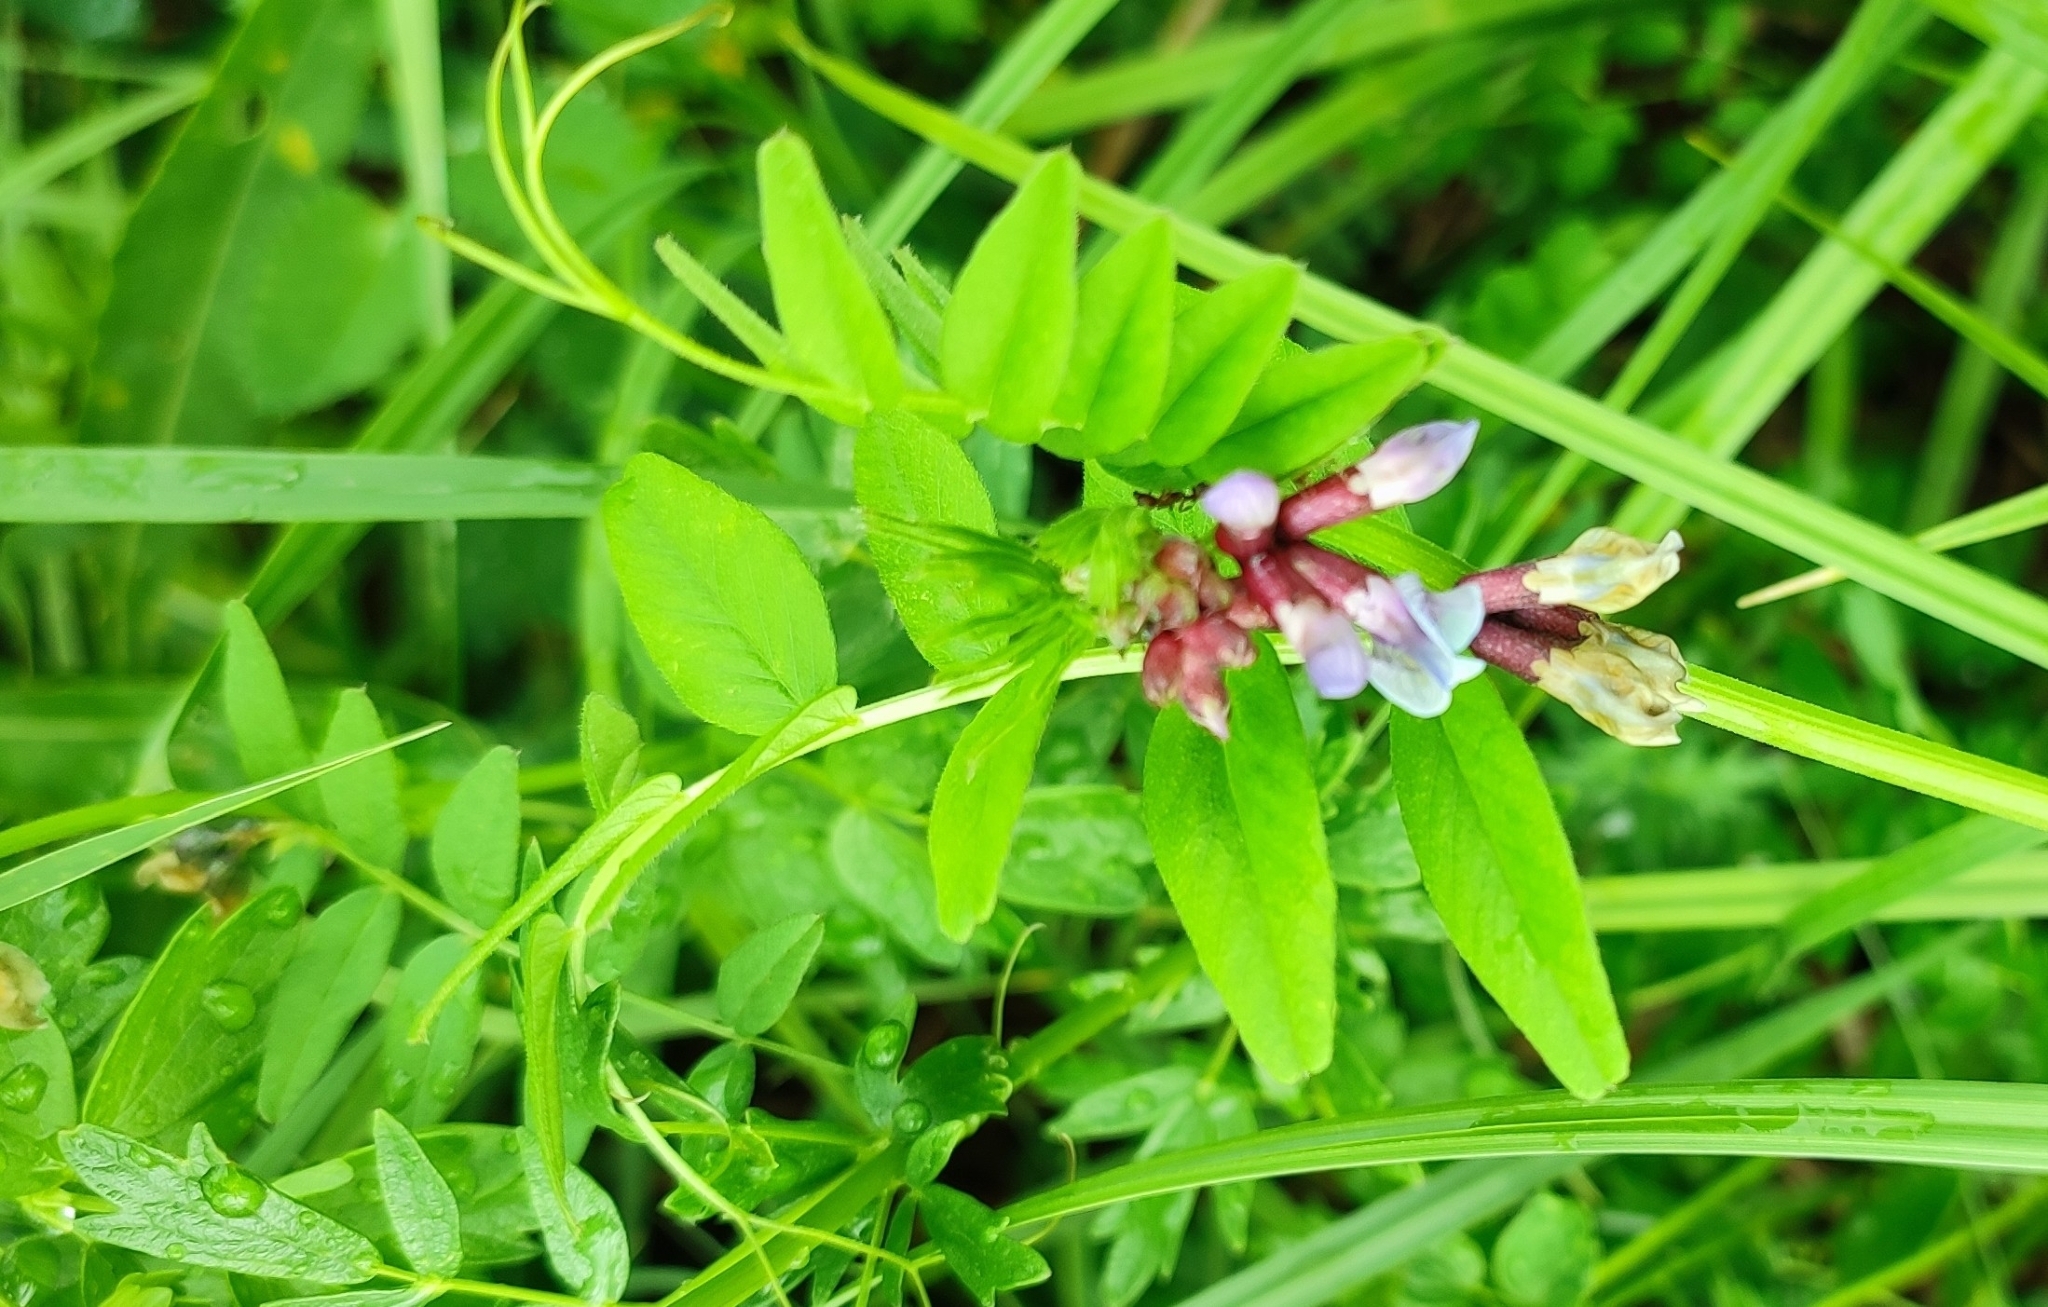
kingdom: Plantae
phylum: Tracheophyta
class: Magnoliopsida
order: Fabales
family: Fabaceae
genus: Vicia
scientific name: Vicia sepium
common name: Bush vetch
